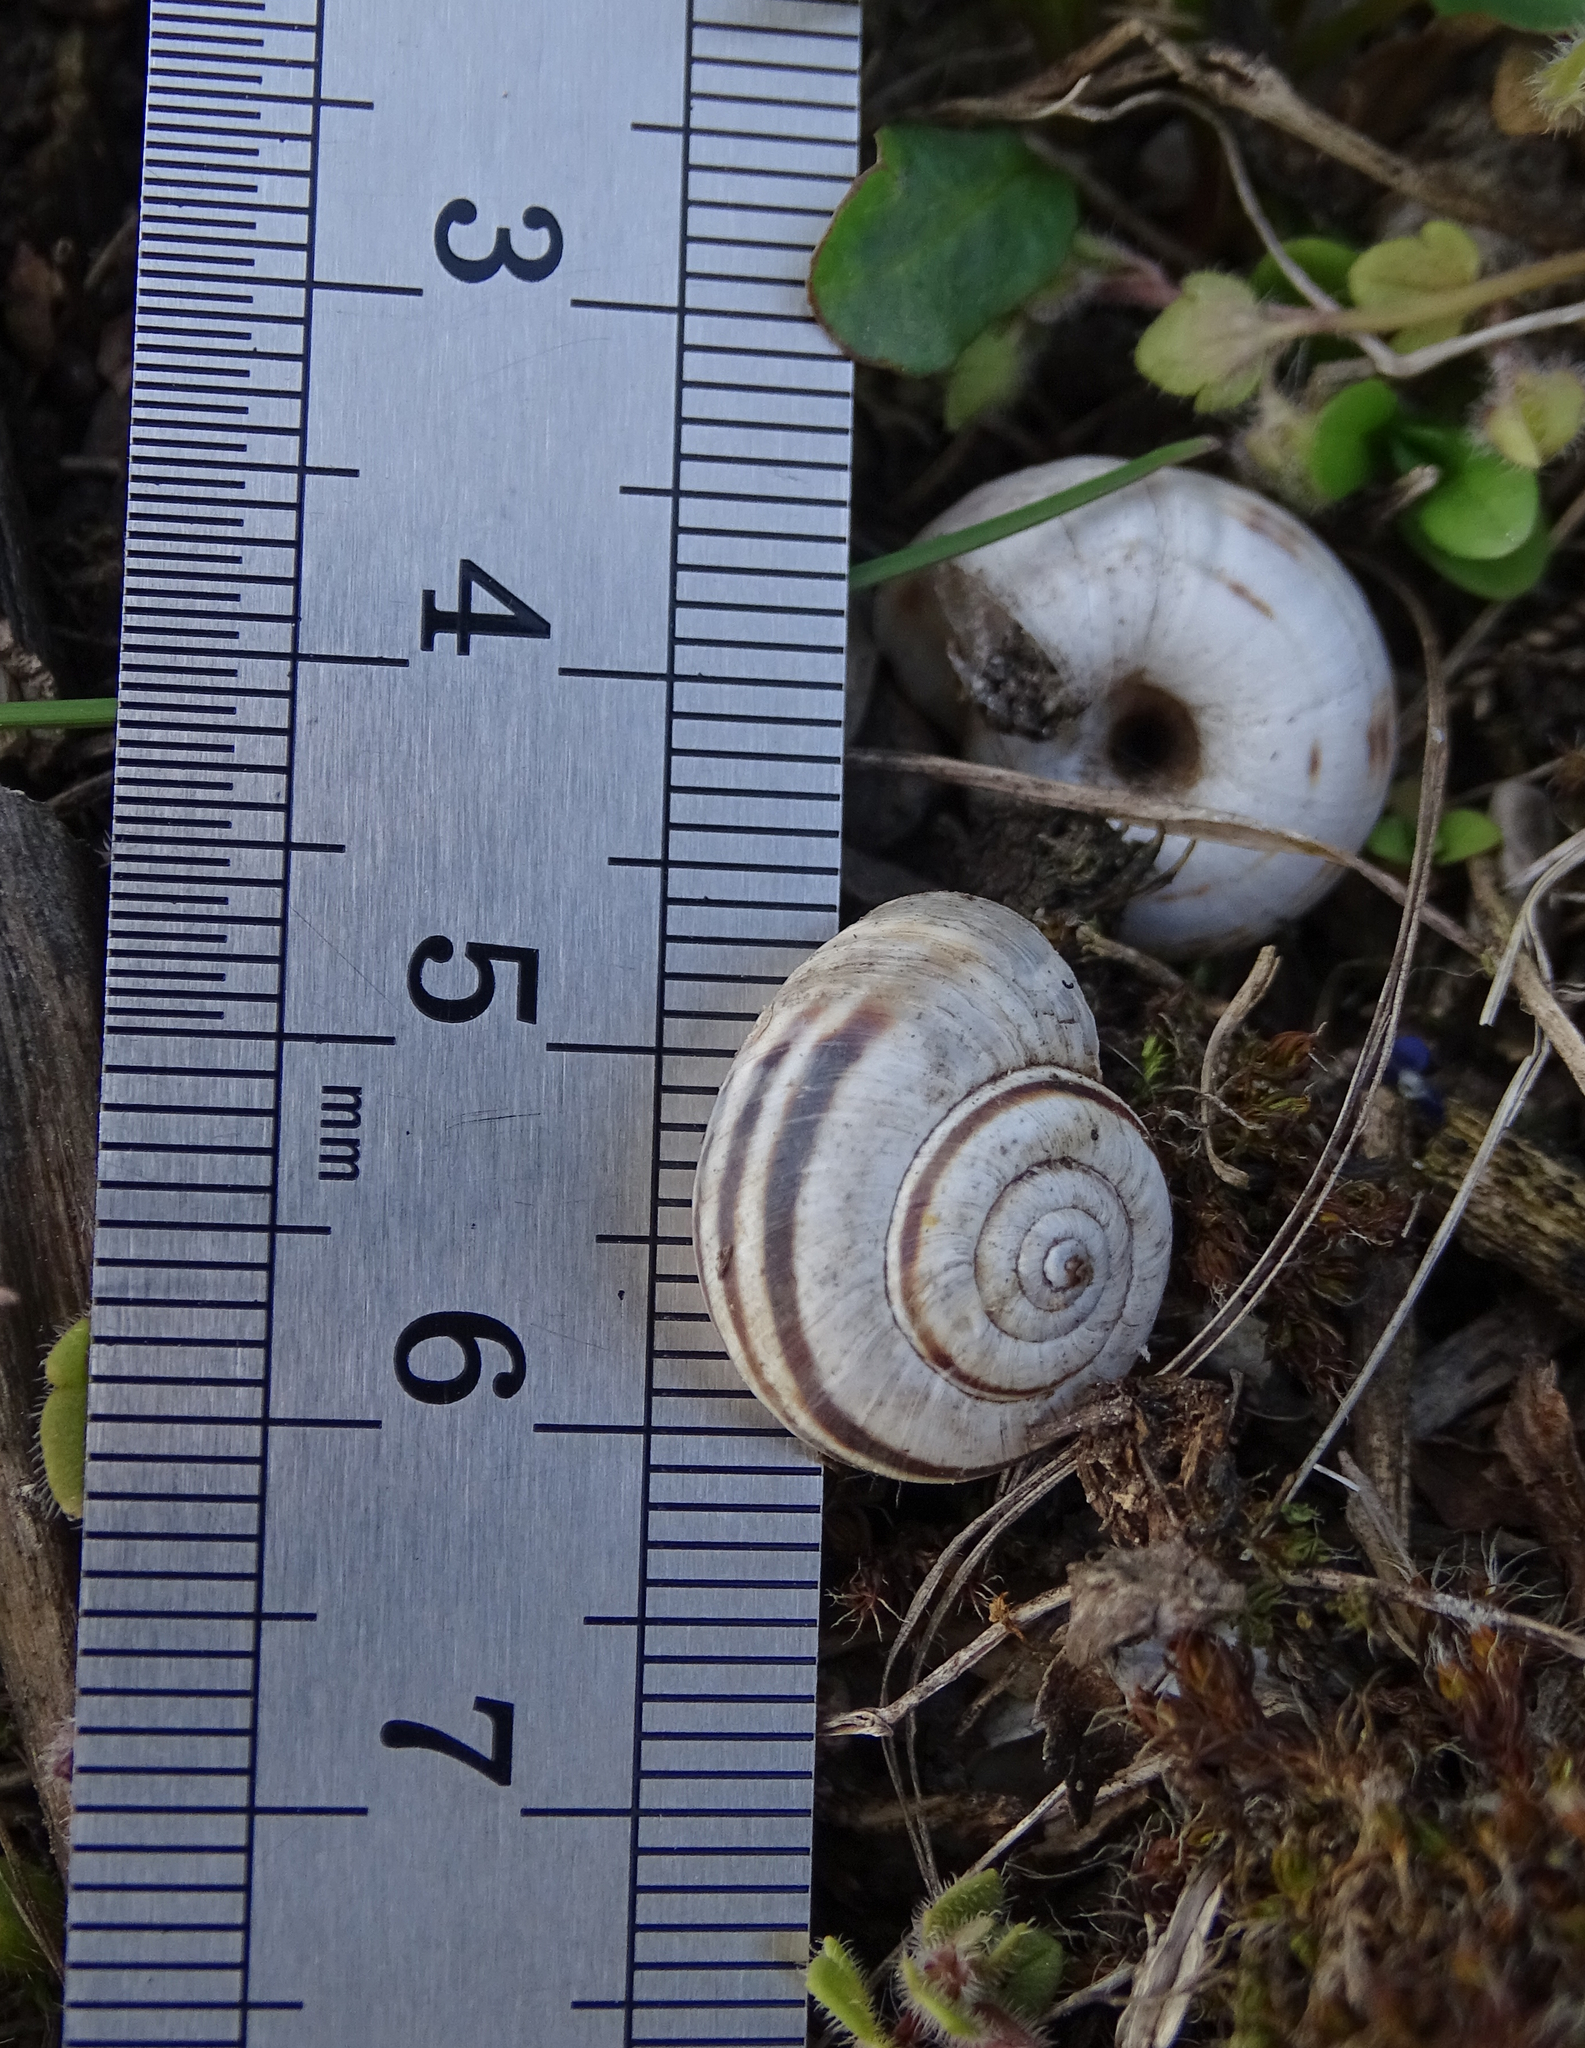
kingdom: Animalia
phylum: Mollusca
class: Gastropoda
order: Stylommatophora
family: Geomitridae
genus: Xerolenta
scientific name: Xerolenta obvia
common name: White heath snail
